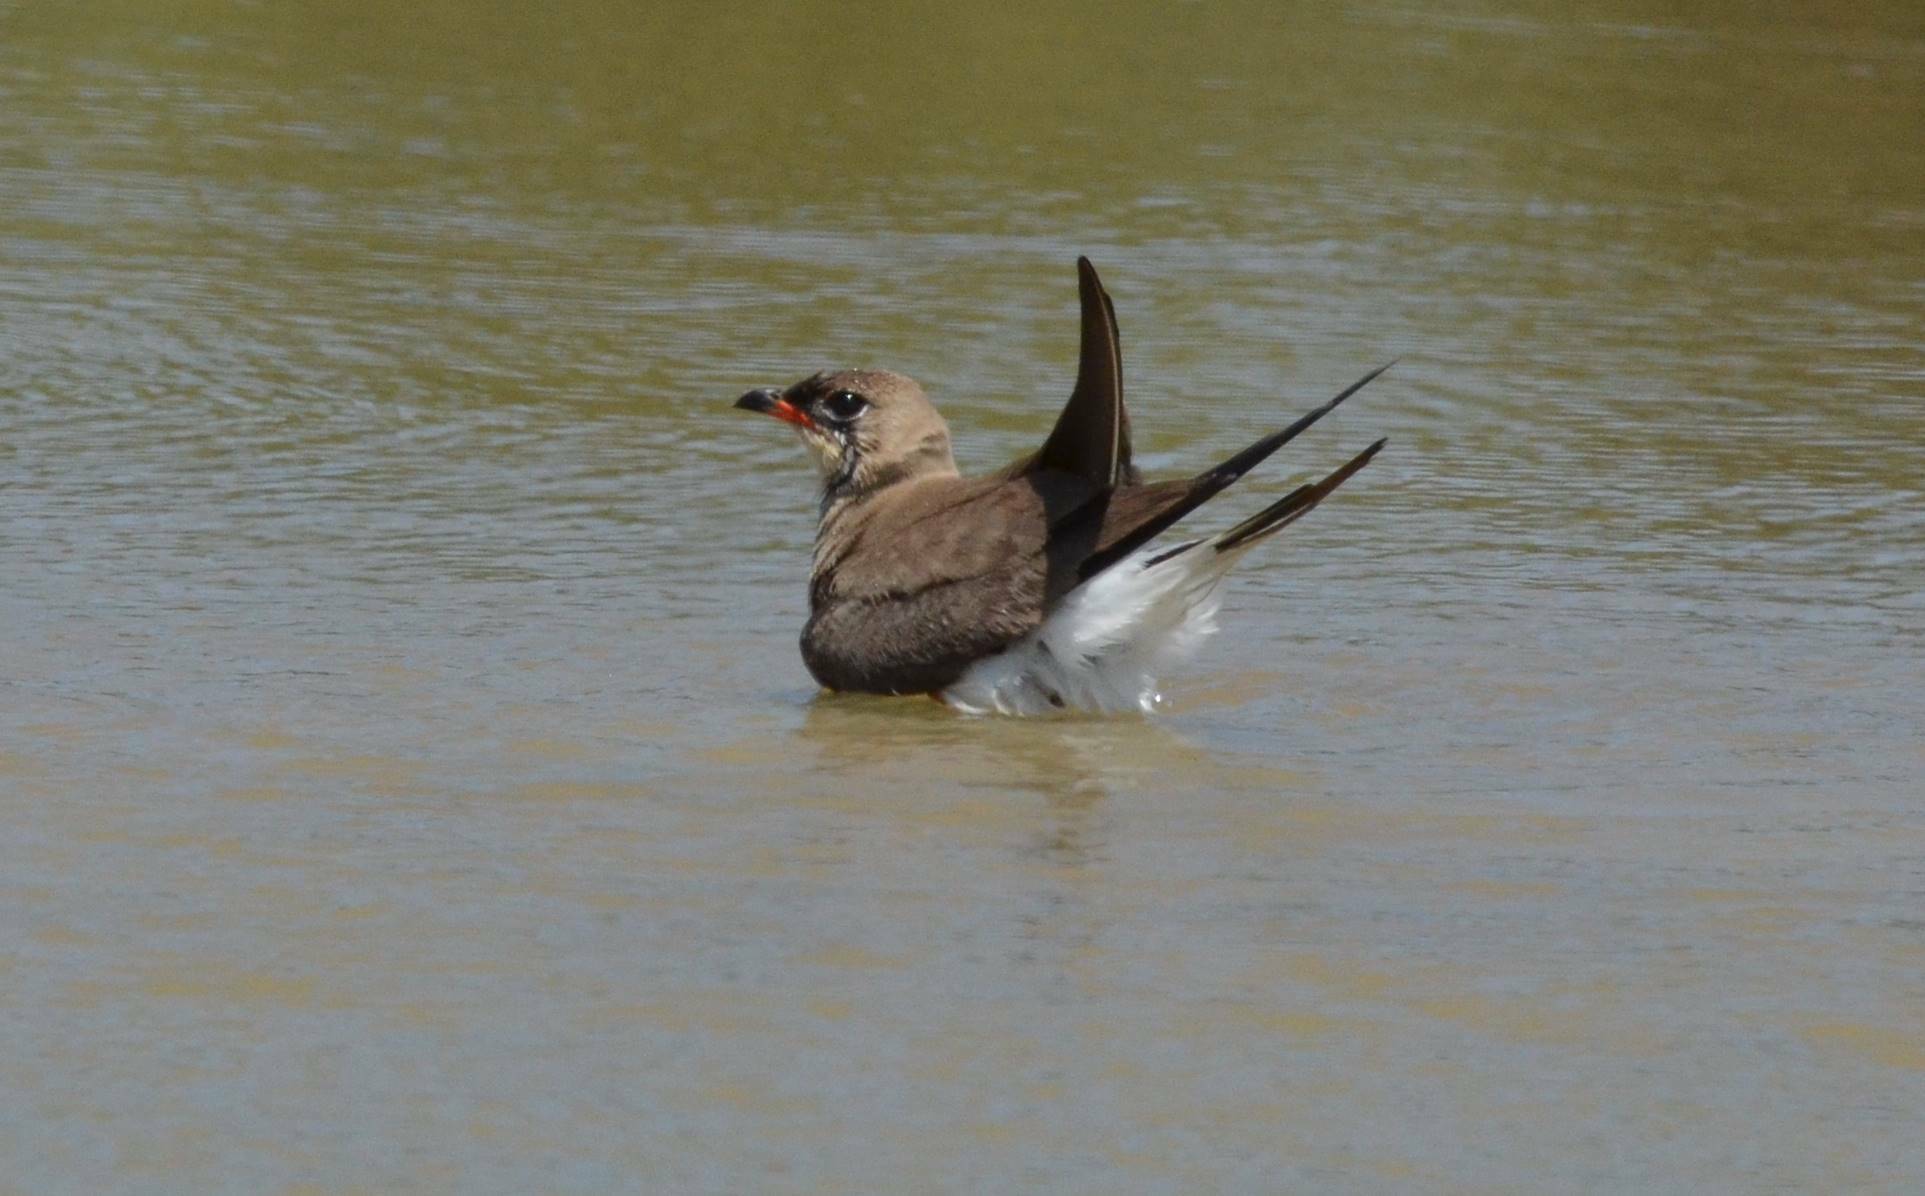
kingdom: Animalia
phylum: Chordata
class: Aves
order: Charadriiformes
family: Glareolidae
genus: Glareola
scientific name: Glareola pratincola
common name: Collared pratincole
